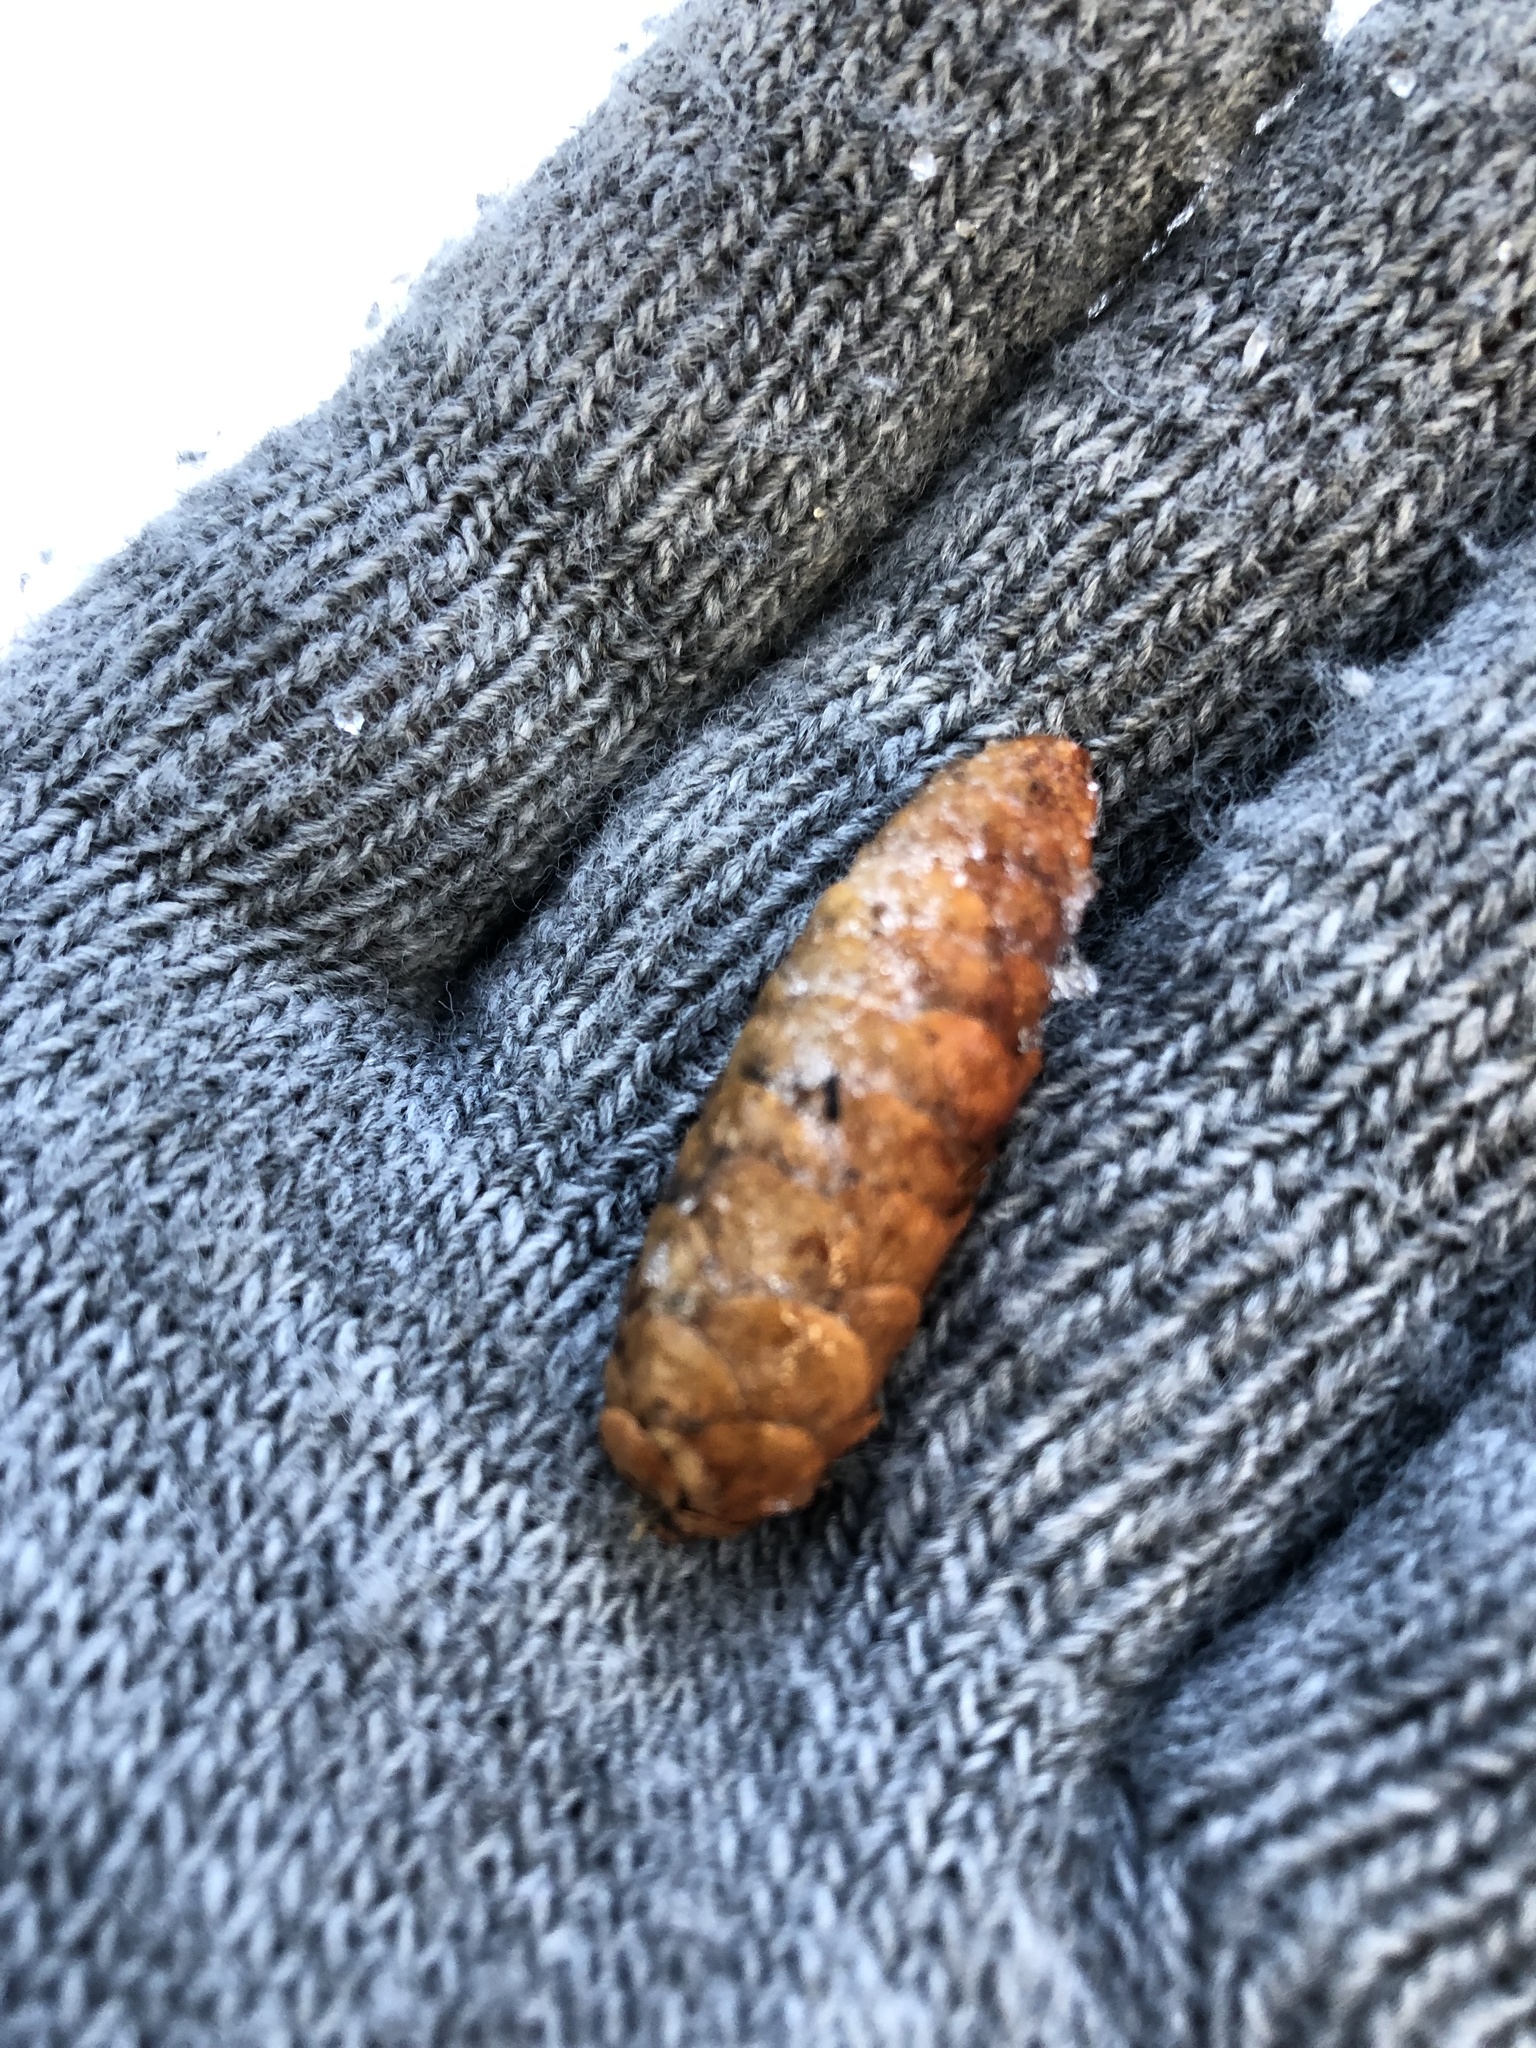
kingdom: Plantae
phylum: Tracheophyta
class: Pinopsida
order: Pinales
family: Pinaceae
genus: Picea
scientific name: Picea glauca
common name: White spruce
